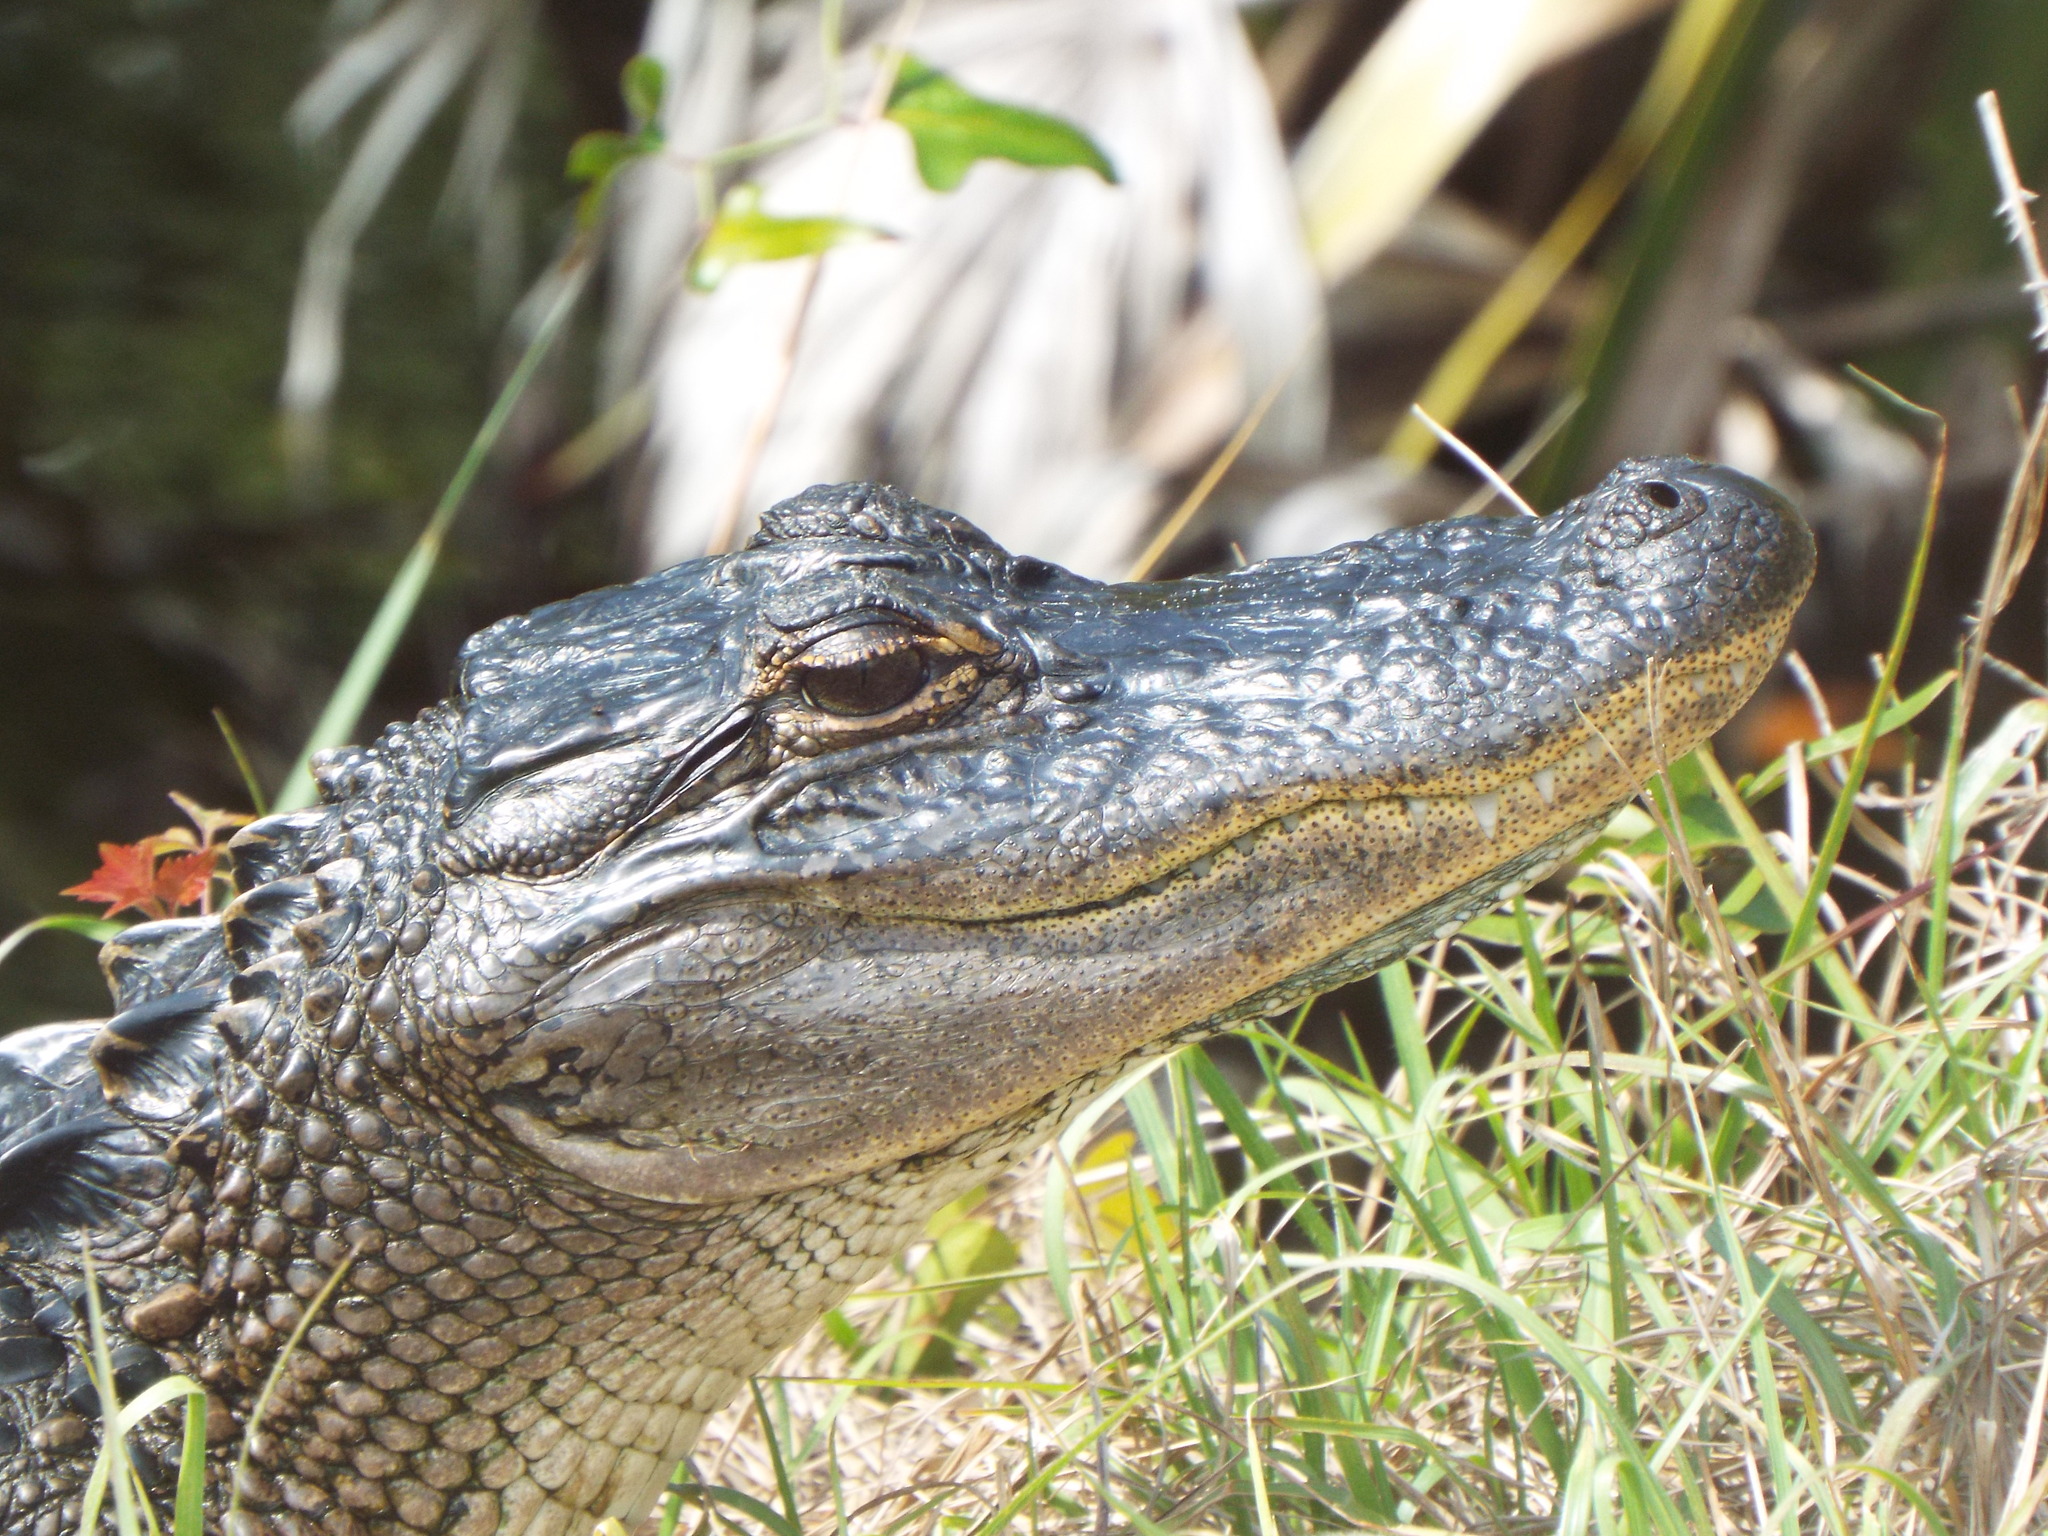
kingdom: Animalia
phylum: Chordata
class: Crocodylia
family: Alligatoridae
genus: Alligator
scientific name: Alligator mississippiensis
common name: American alligator
